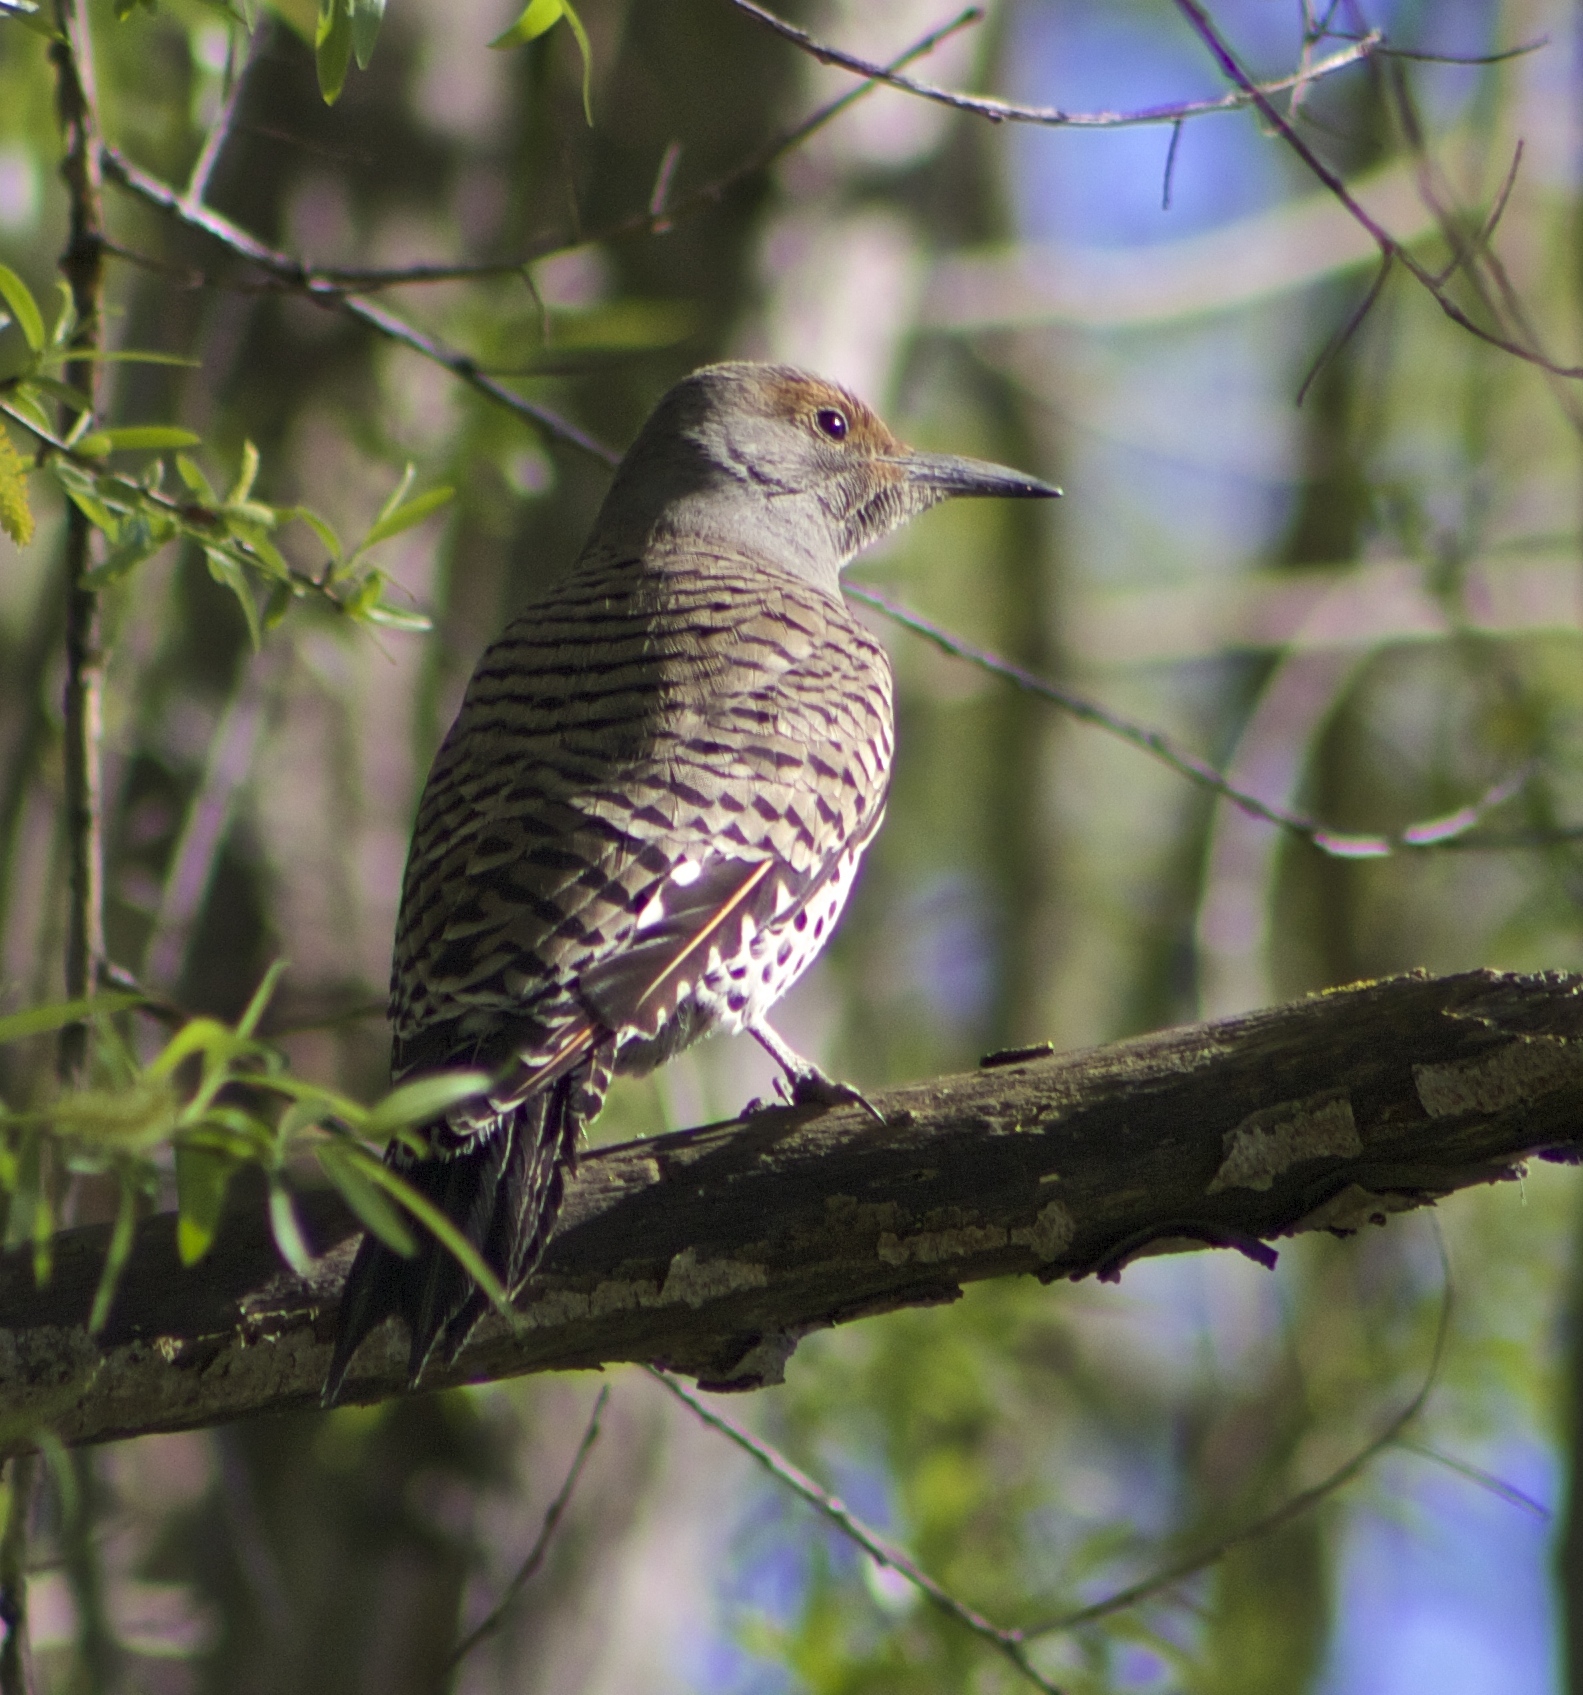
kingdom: Animalia
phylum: Chordata
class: Aves
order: Piciformes
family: Picidae
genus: Colaptes
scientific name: Colaptes auratus
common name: Northern flicker
